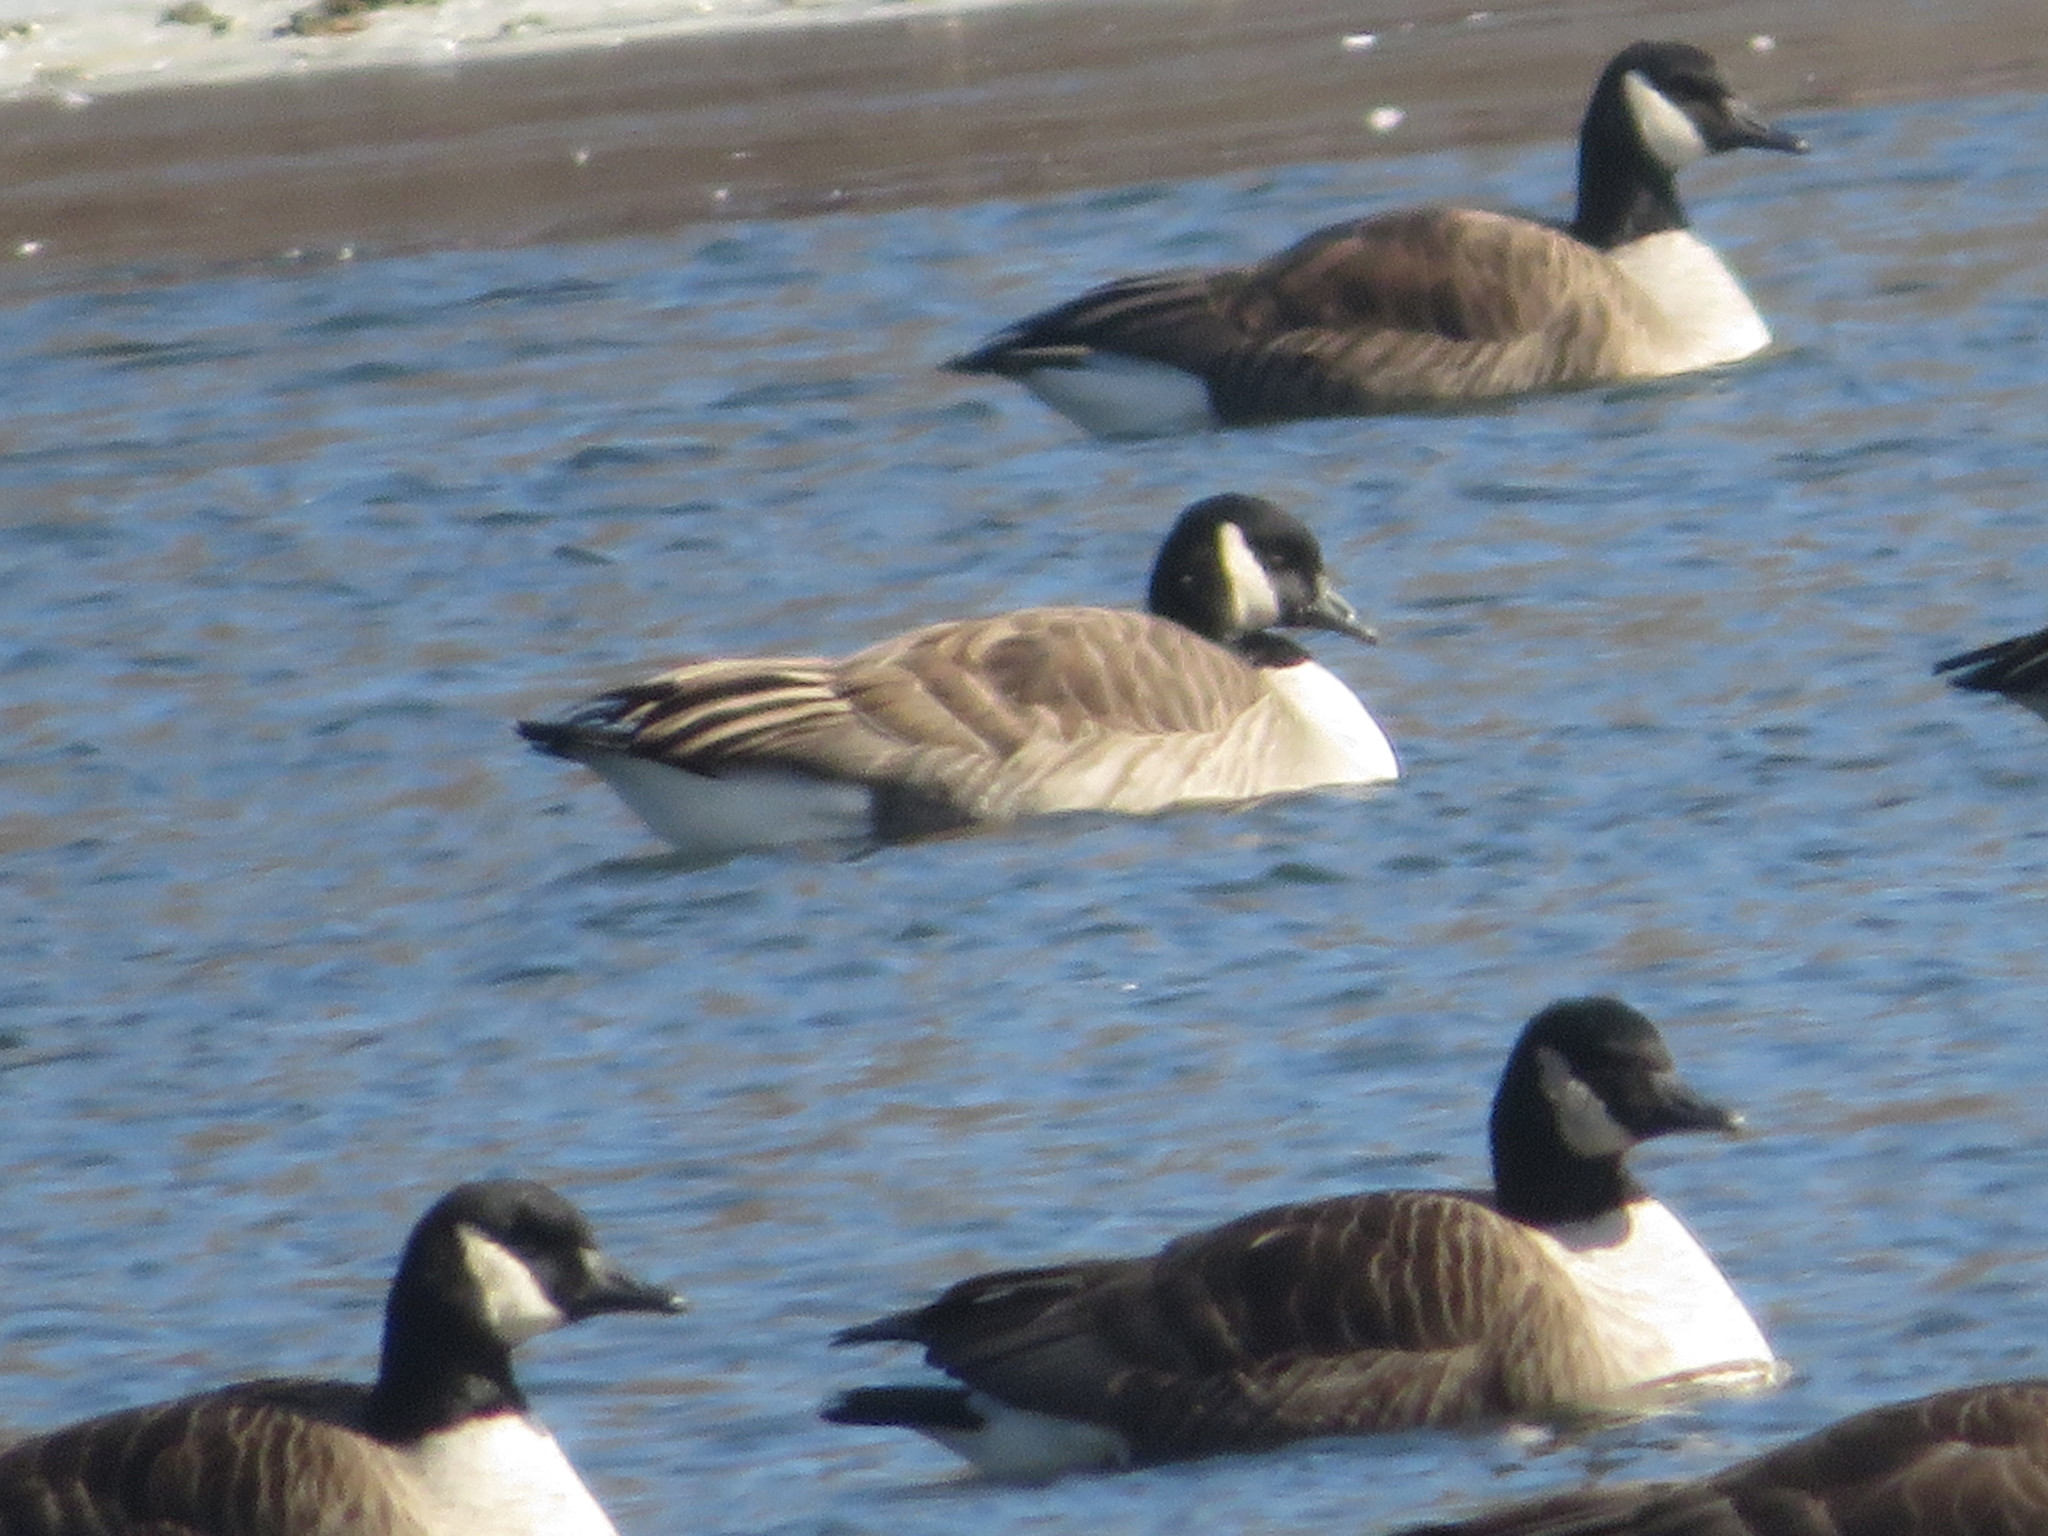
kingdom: Animalia
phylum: Chordata
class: Aves
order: Anseriformes
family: Anatidae
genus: Branta
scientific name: Branta canadensis
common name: Canada goose
